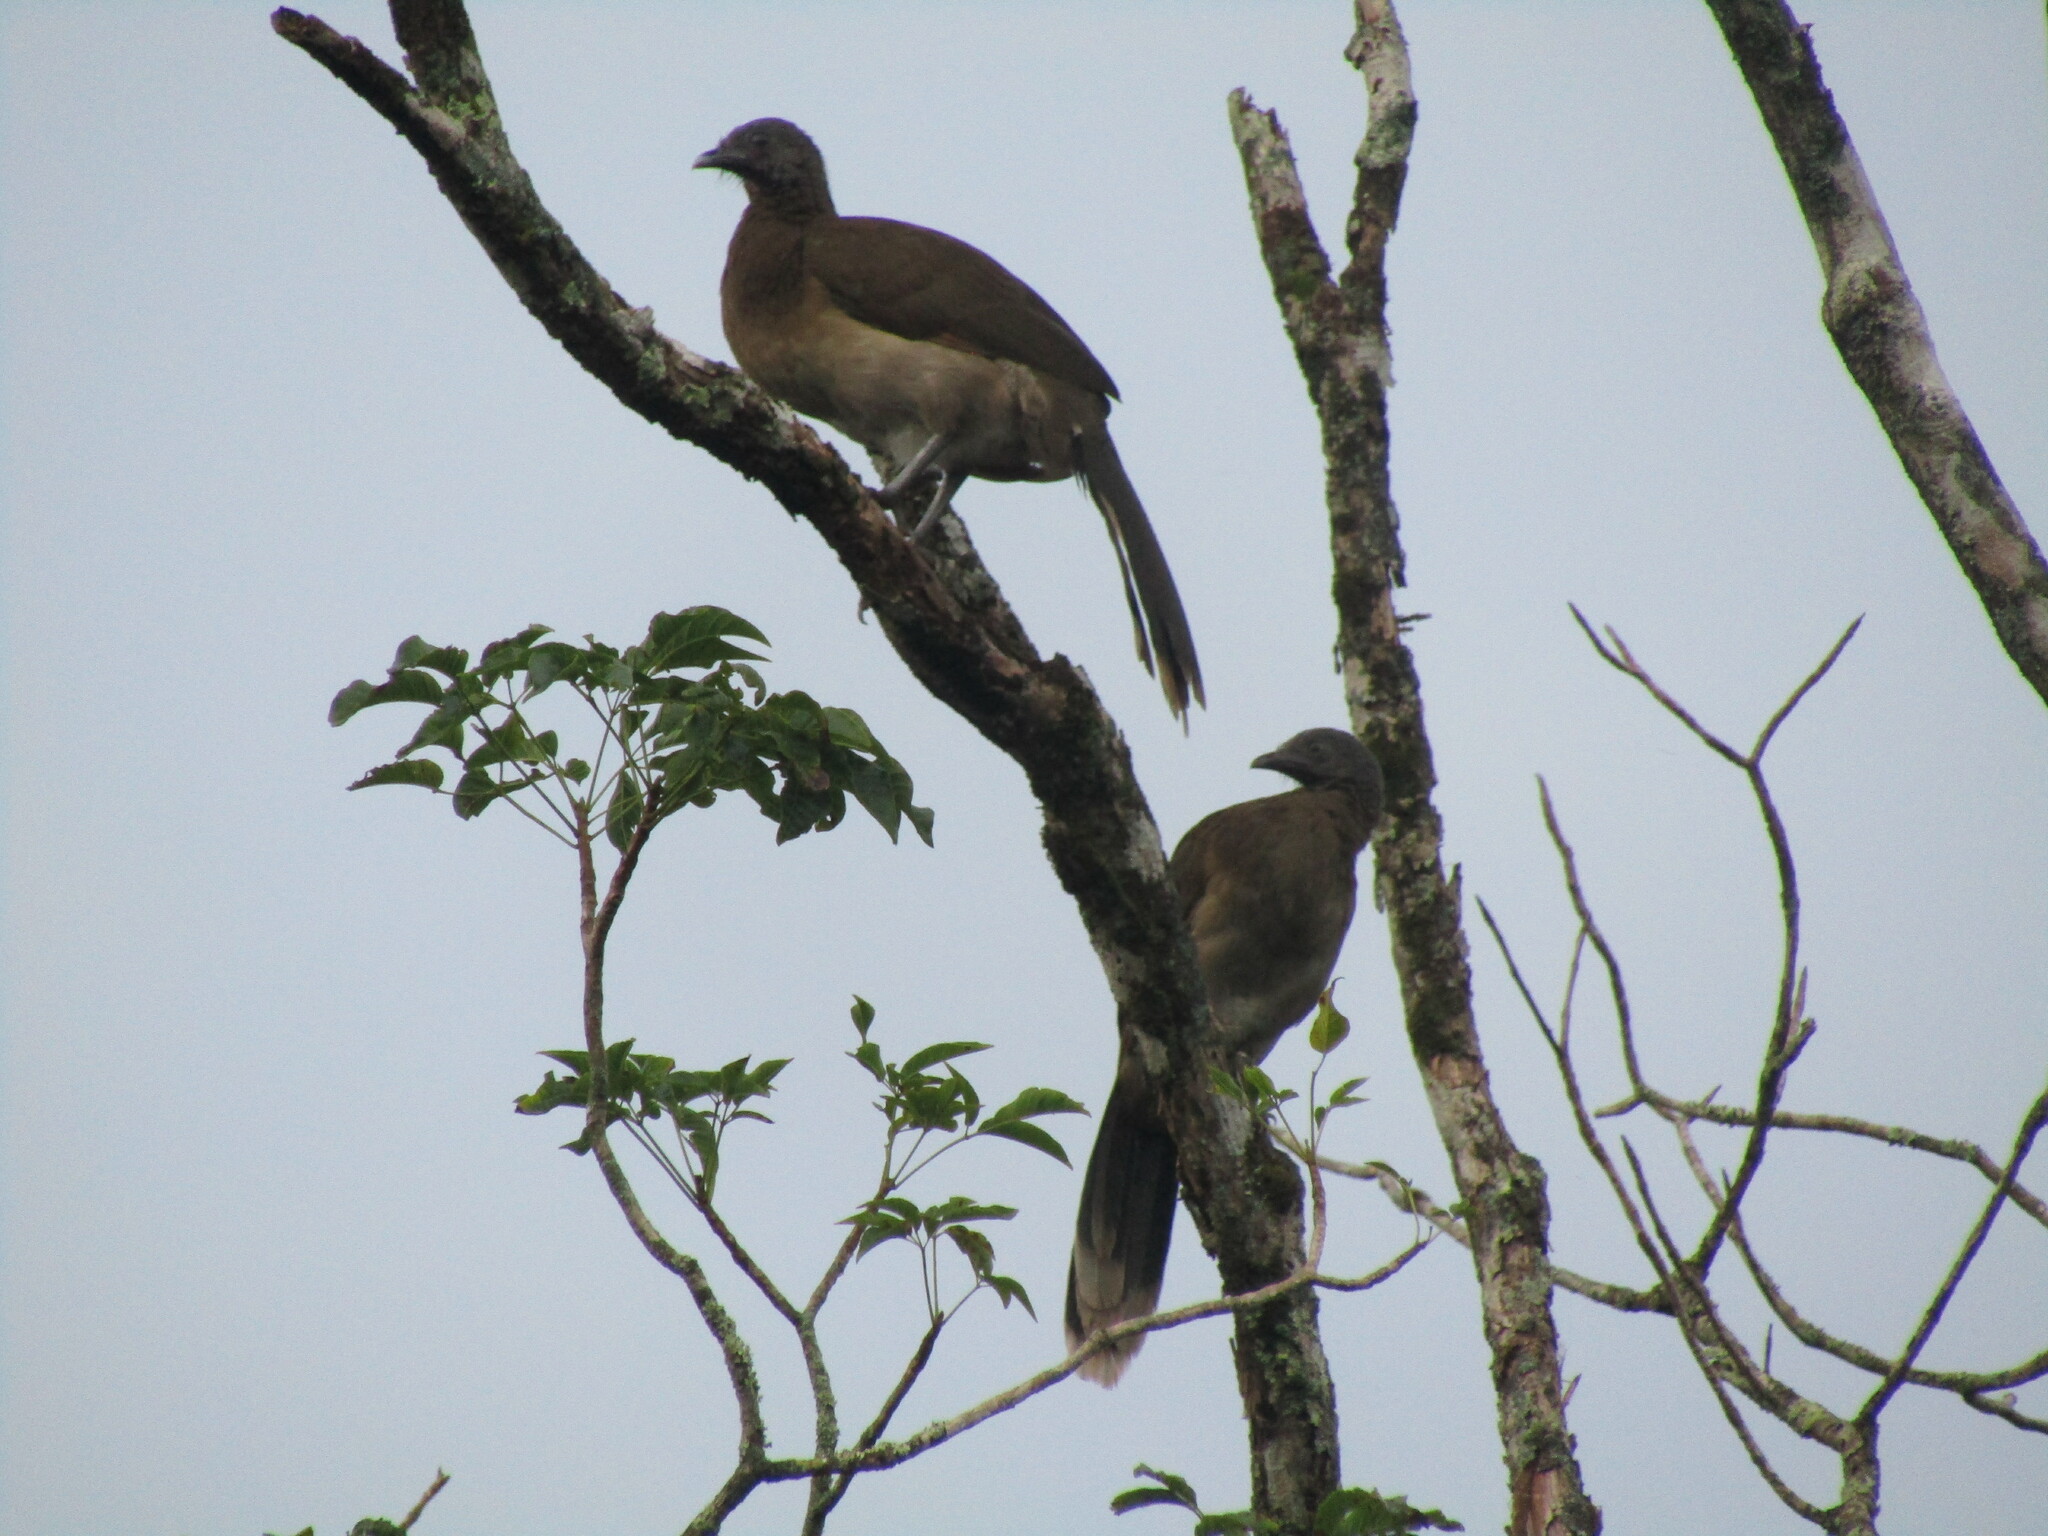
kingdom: Animalia
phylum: Chordata
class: Aves
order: Galliformes
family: Cracidae
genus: Ortalis
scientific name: Ortalis cinereiceps
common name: Grey-headed chachalaca
